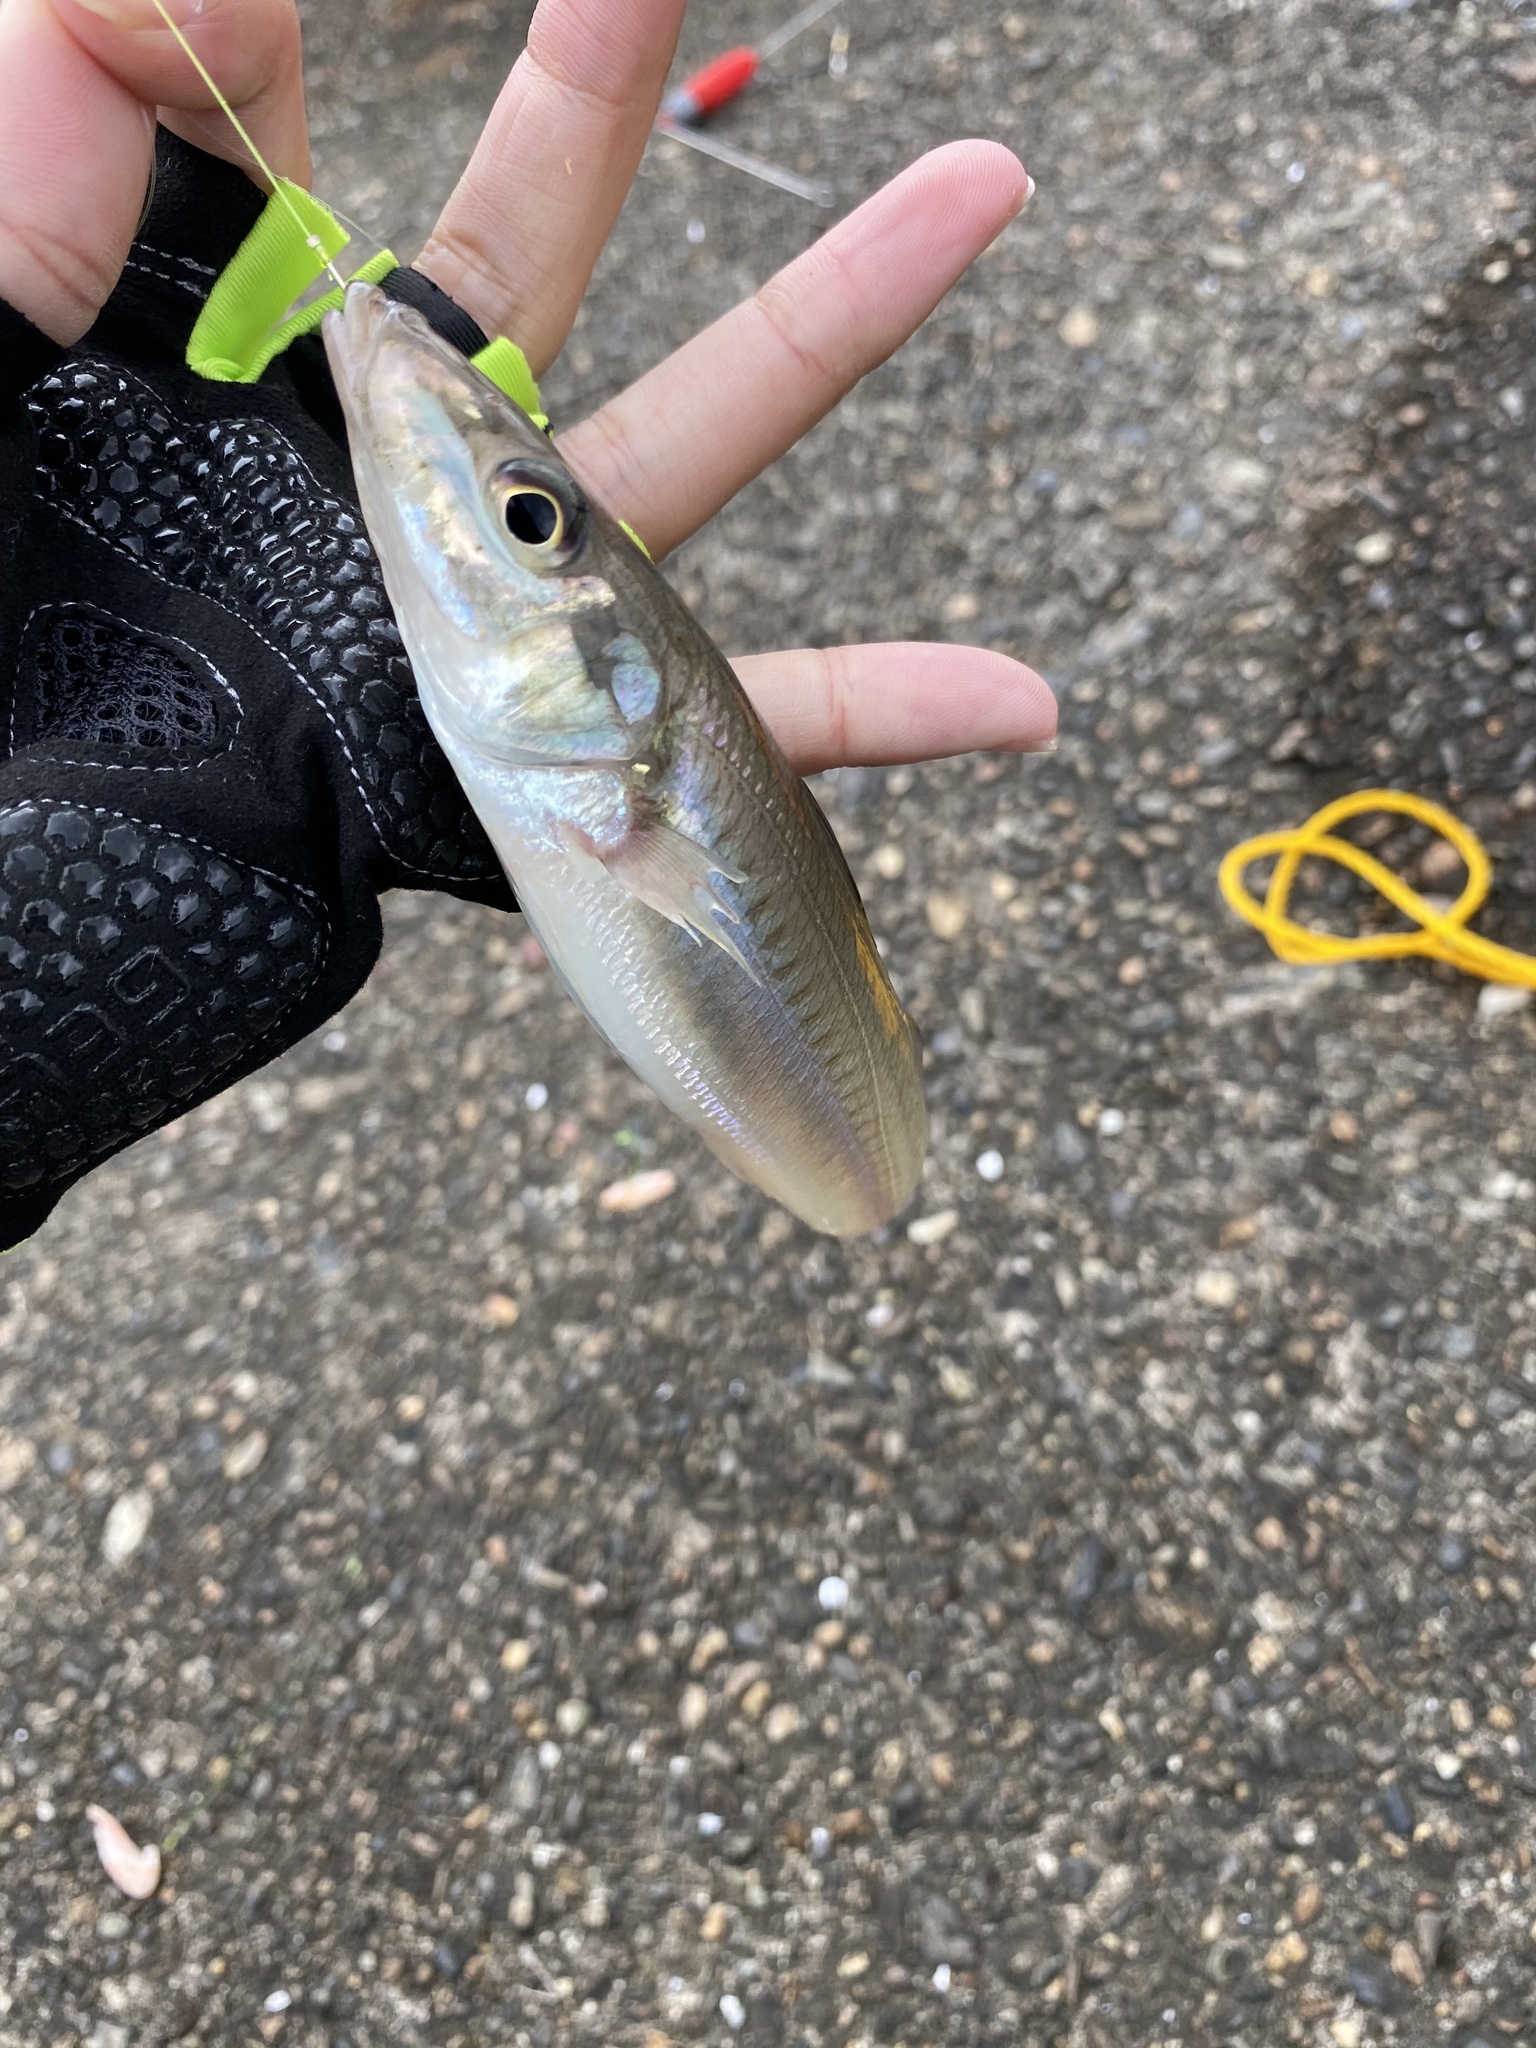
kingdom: Animalia
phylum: Chordata
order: Perciformes
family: Sillaginidae
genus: Sillago
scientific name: Sillago japonica
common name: Japanese sillago
